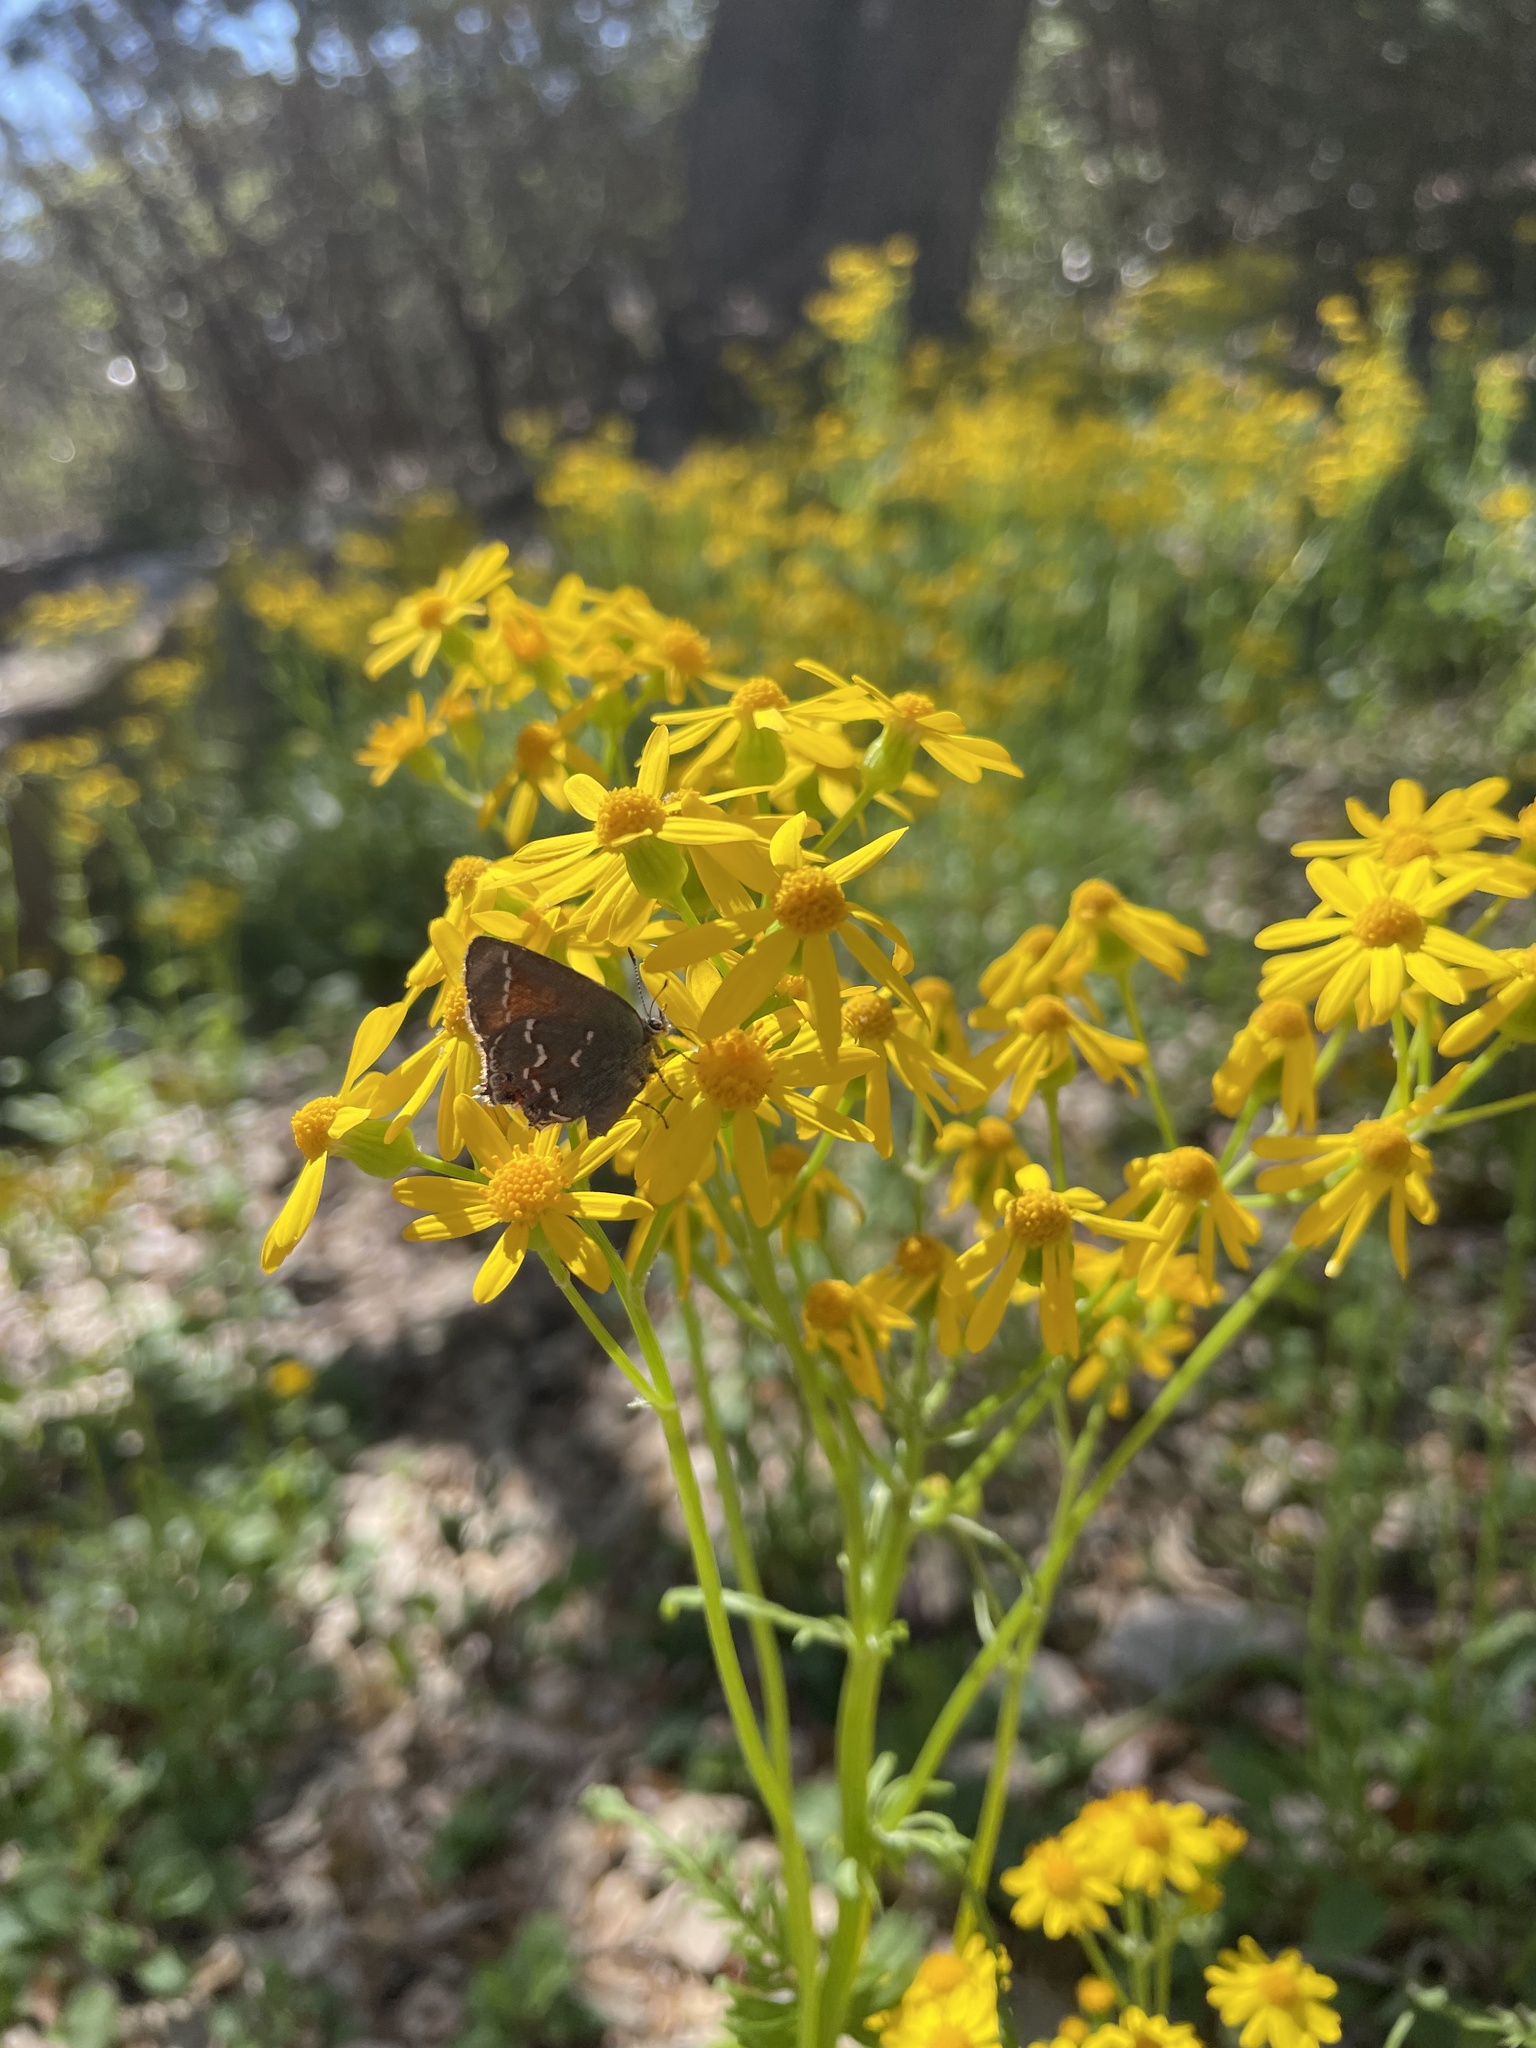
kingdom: Animalia
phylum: Arthropoda
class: Insecta
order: Lepidoptera
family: Lycaenidae
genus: Mitoura
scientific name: Mitoura gryneus
